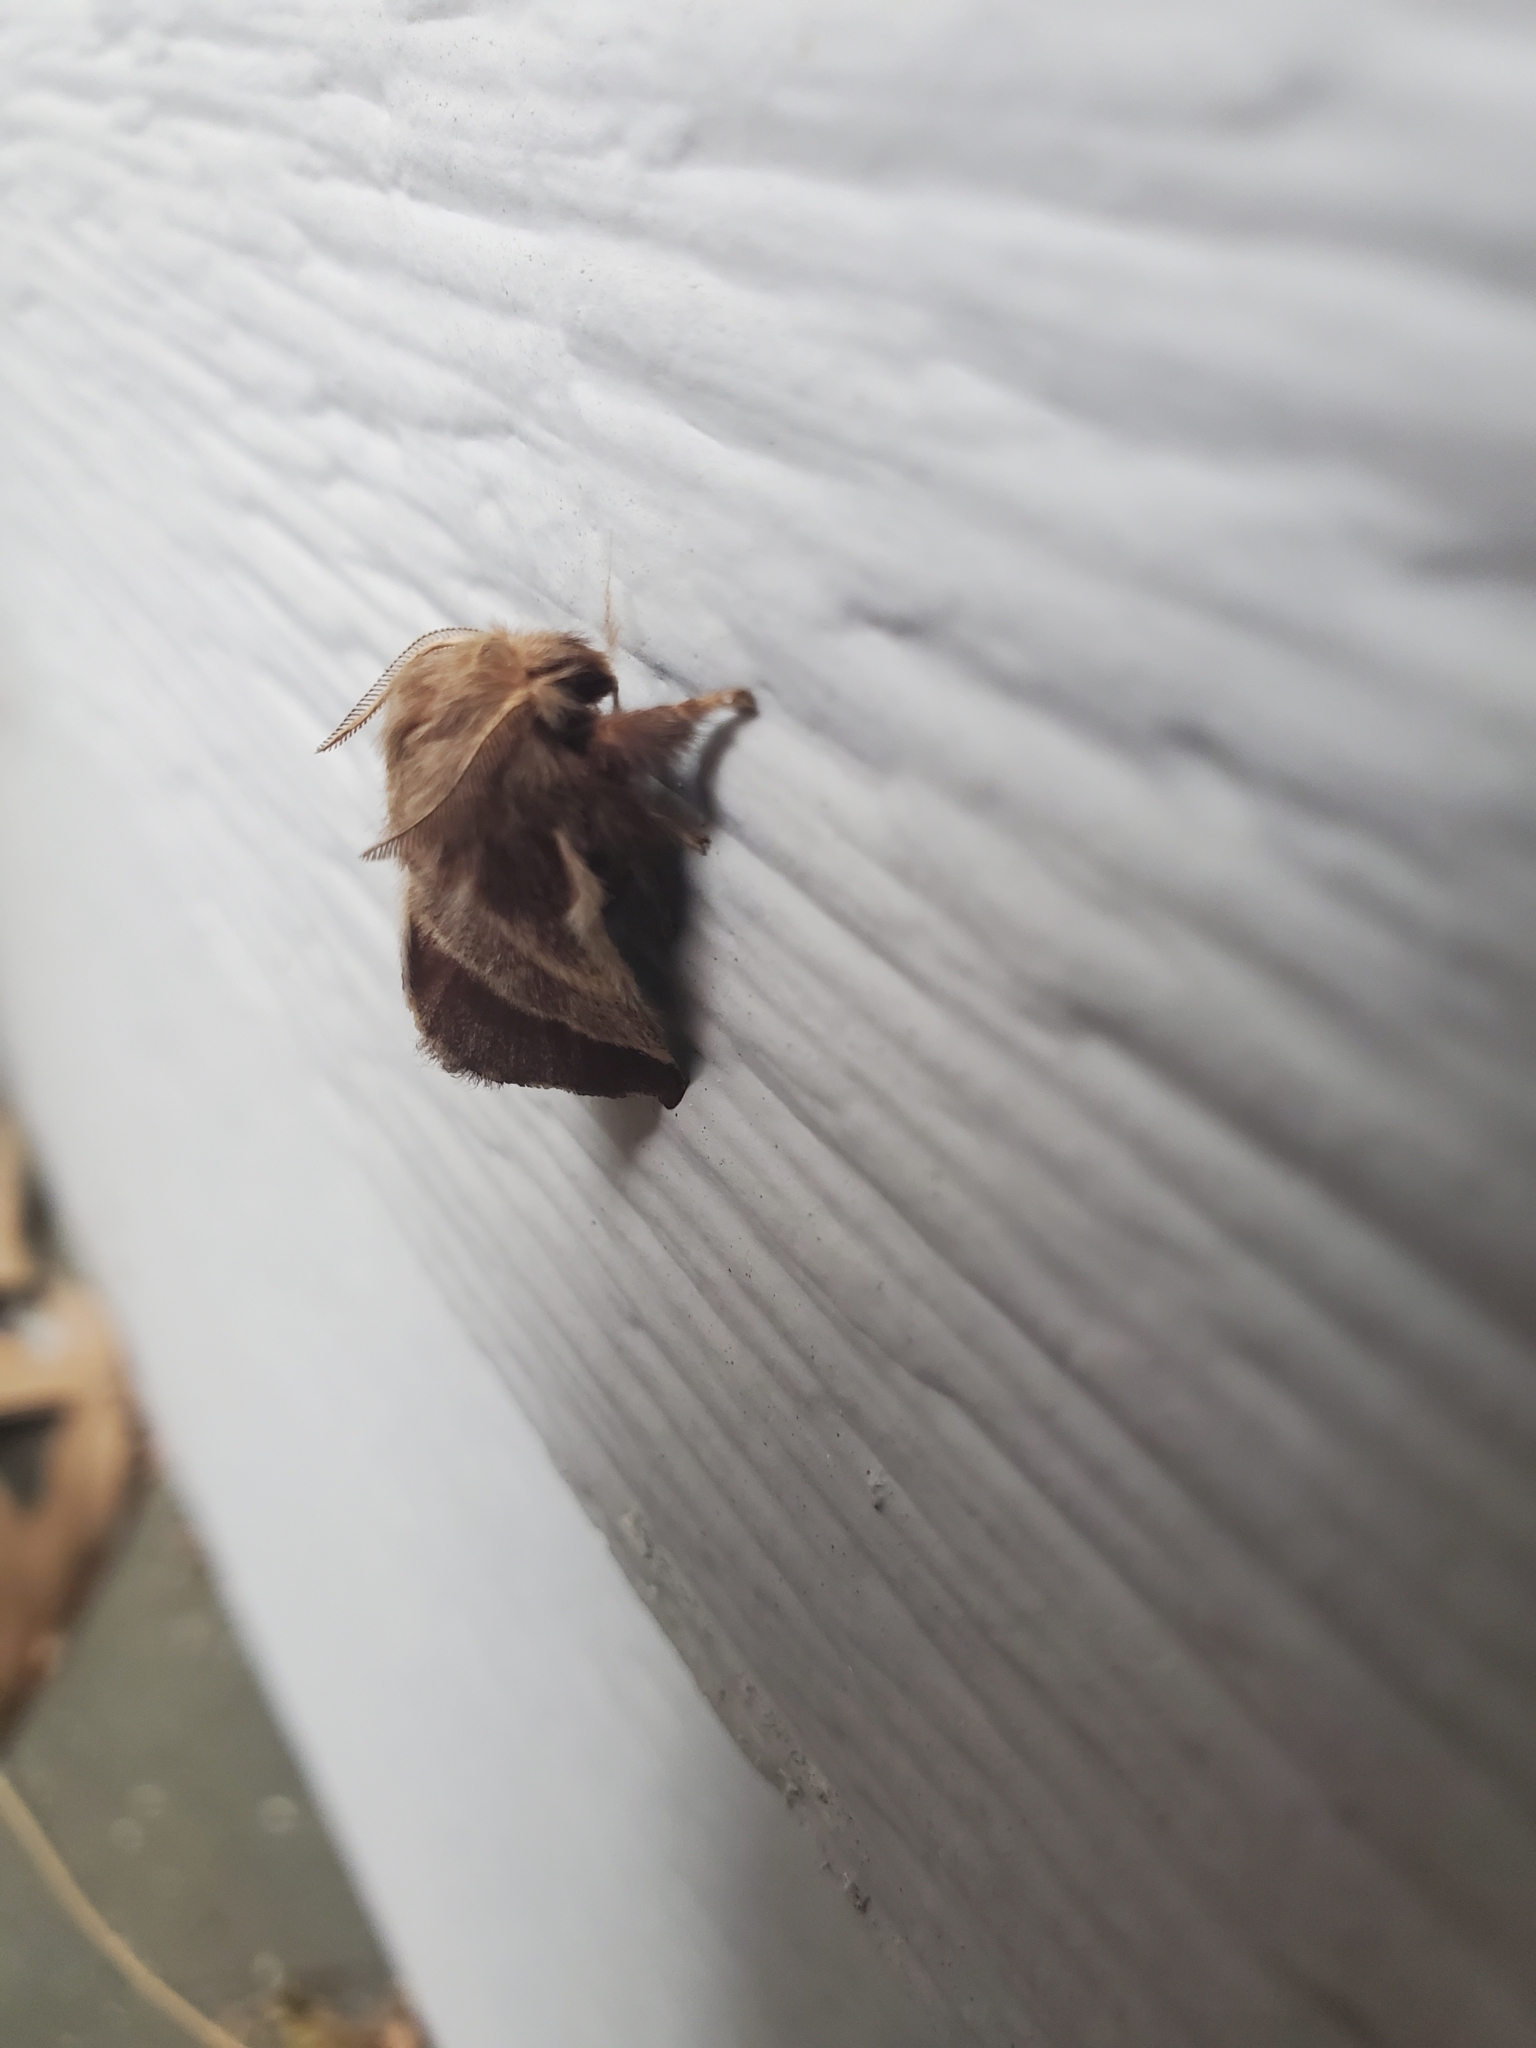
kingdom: Animalia
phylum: Arthropoda
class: Insecta
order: Lepidoptera
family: Lasiocampidae
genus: Malacosoma
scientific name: Malacosoma americana
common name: Eastern tent caterpillar moth
